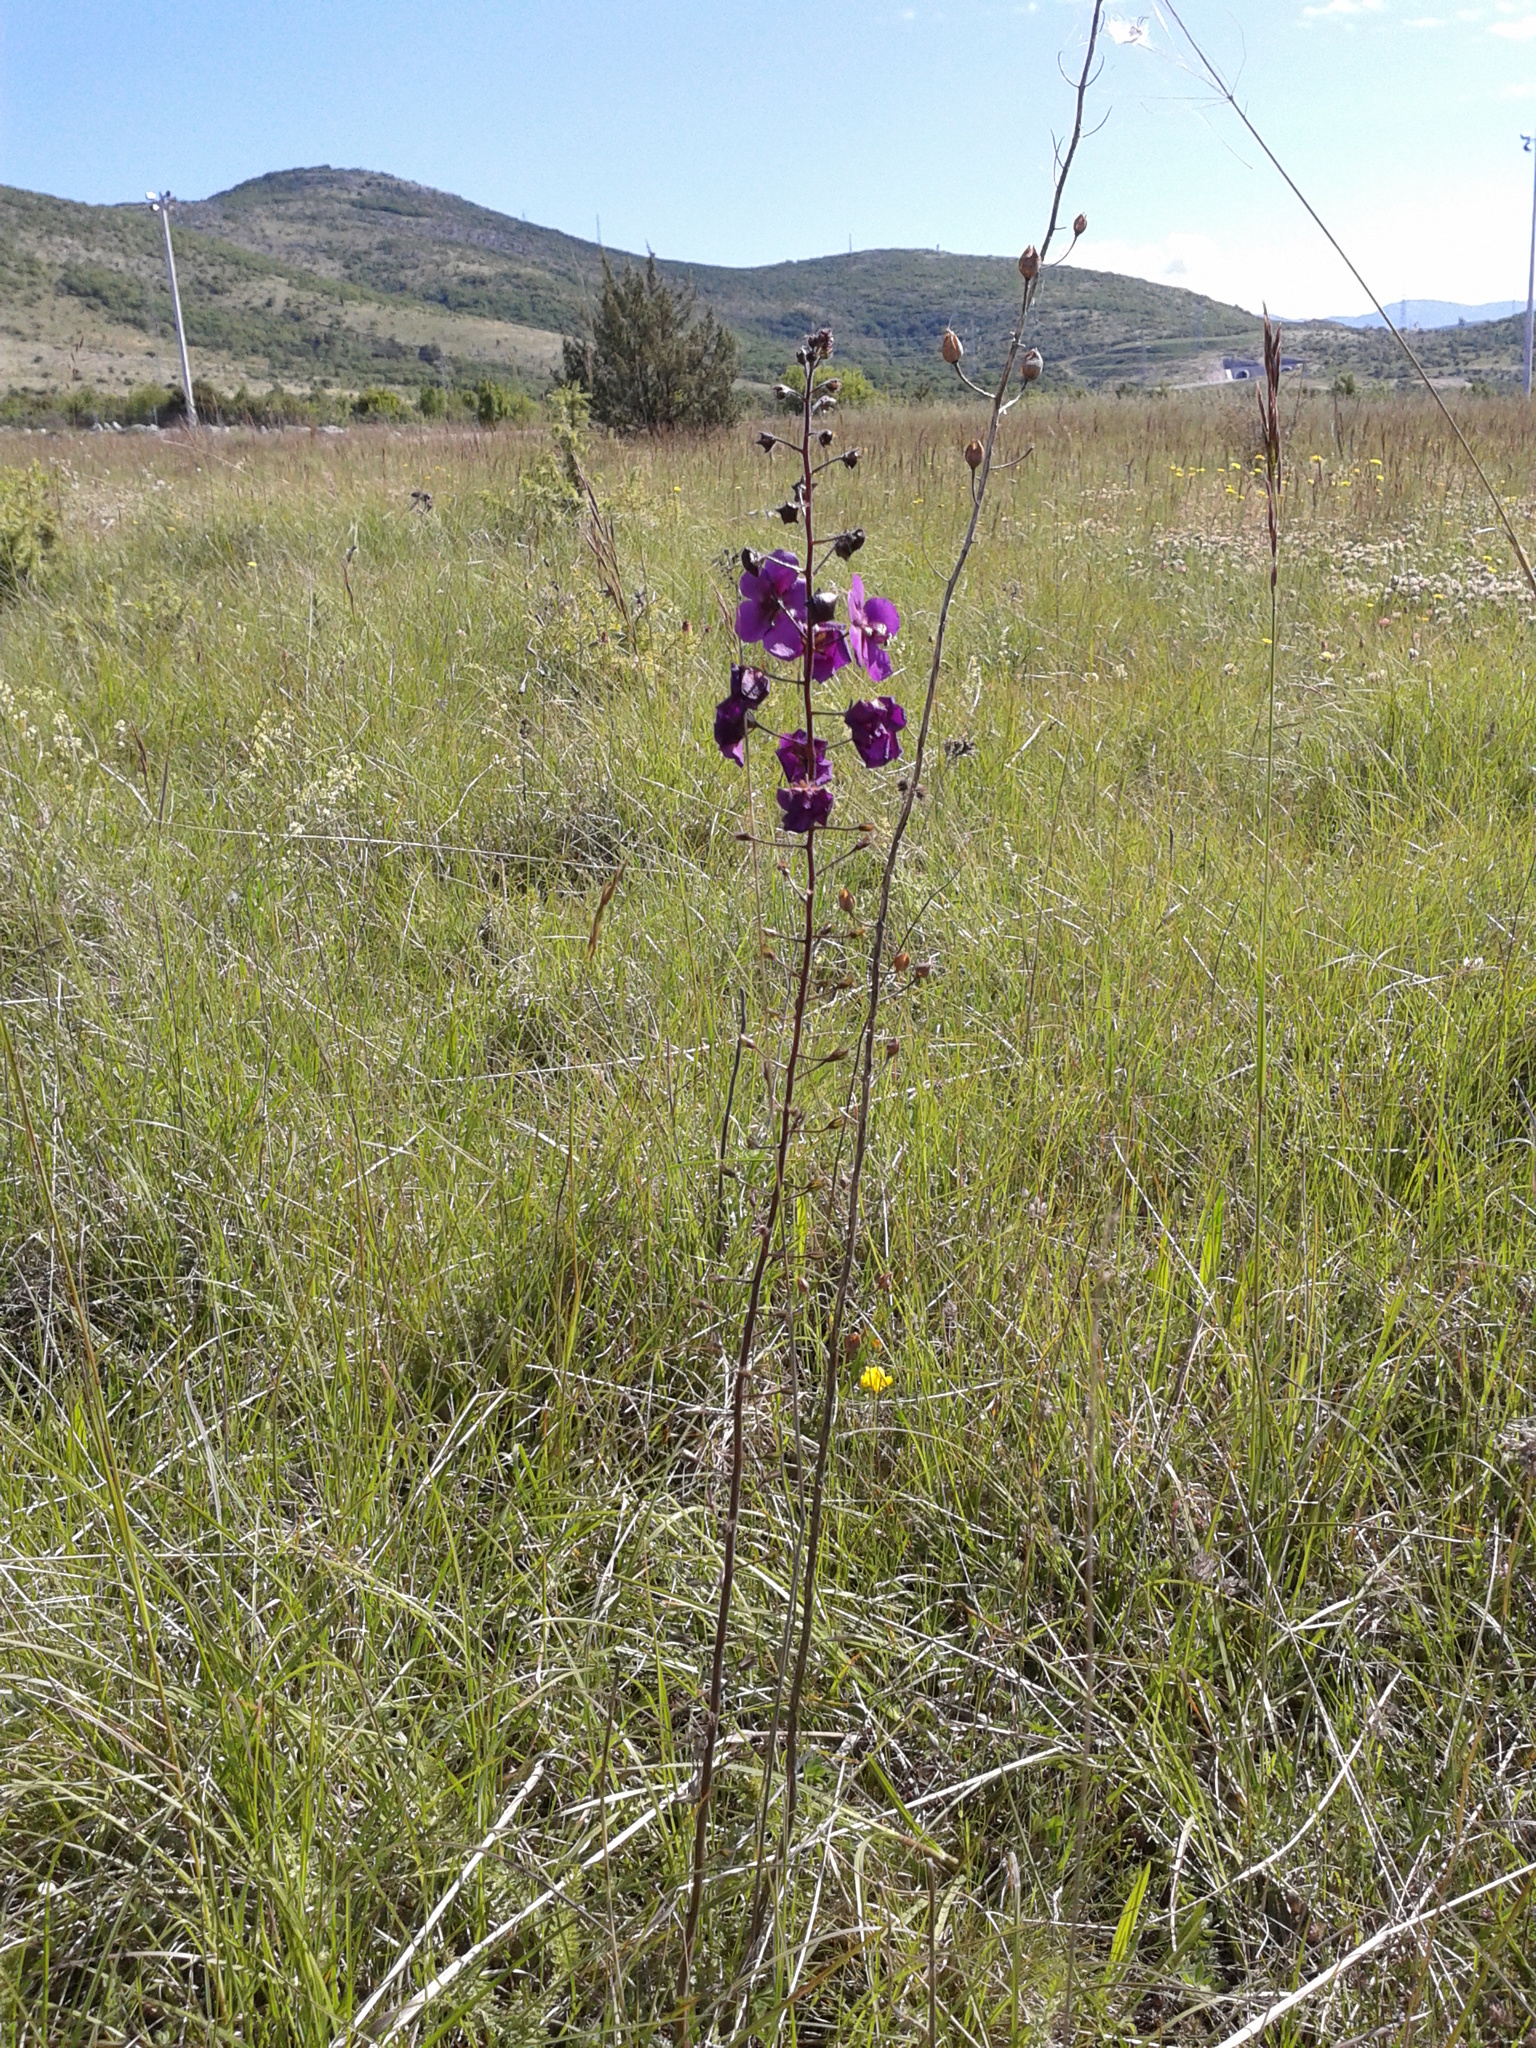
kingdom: Plantae
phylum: Tracheophyta
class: Magnoliopsida
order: Lamiales
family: Scrophulariaceae
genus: Verbascum
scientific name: Verbascum phoeniceum
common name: Purple mullein
